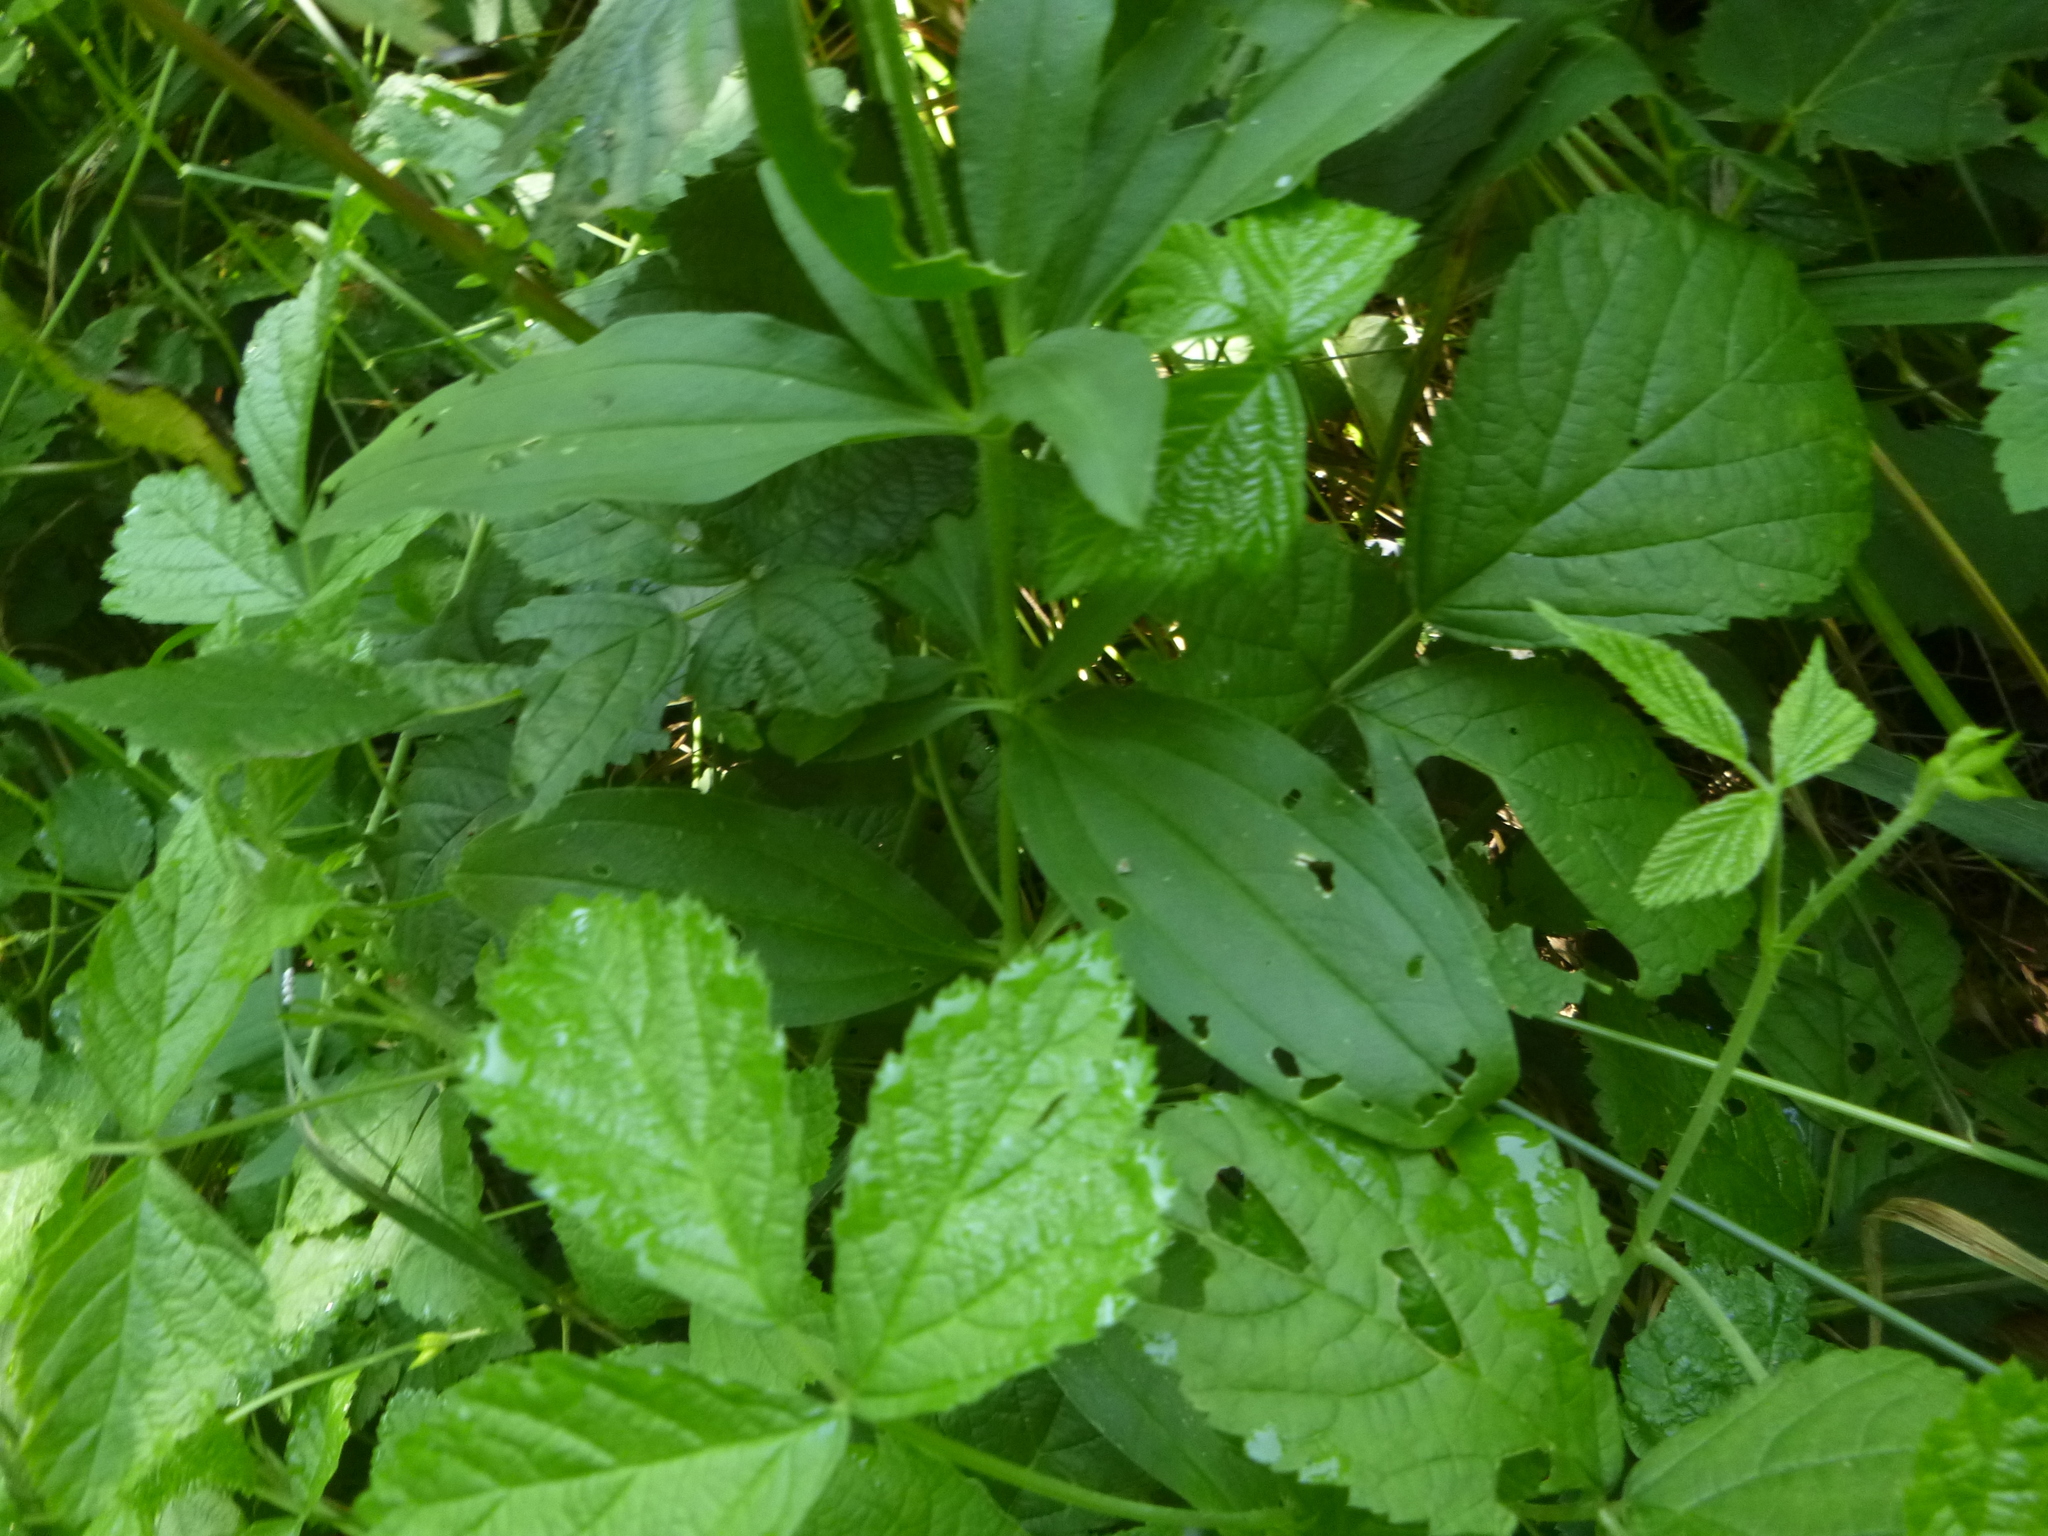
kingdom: Plantae
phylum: Tracheophyta
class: Magnoliopsida
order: Caryophyllales
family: Caryophyllaceae
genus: Saponaria
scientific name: Saponaria officinalis
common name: Soapwort
